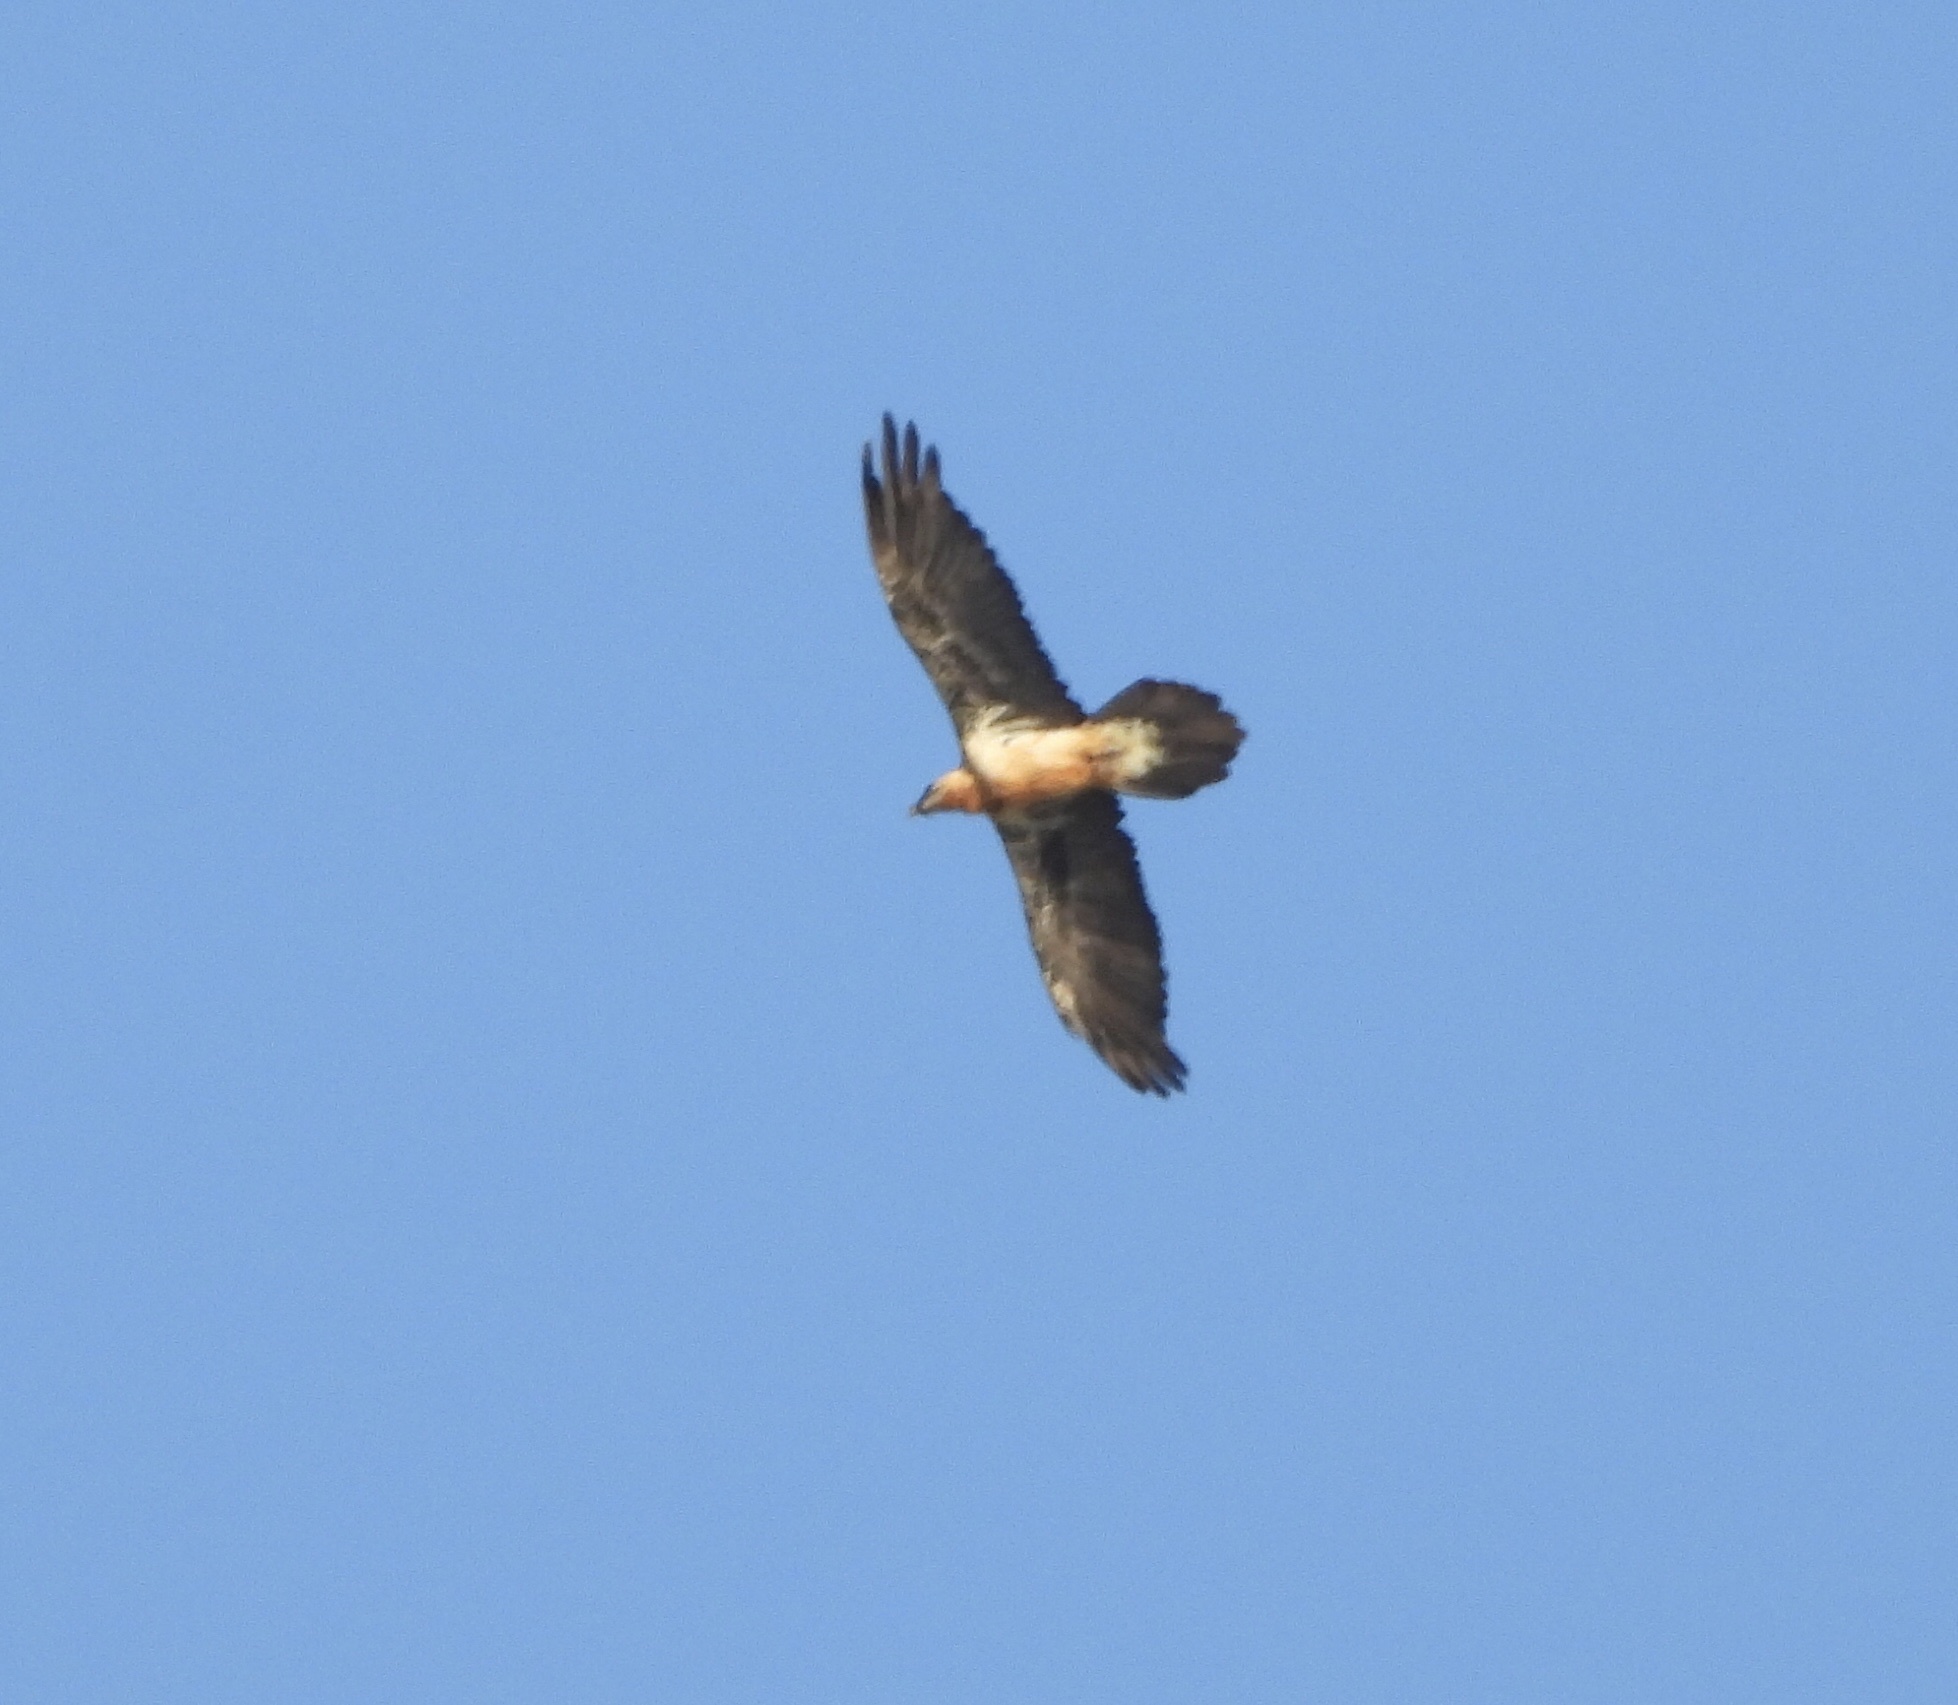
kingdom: Animalia
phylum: Chordata
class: Aves
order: Accipitriformes
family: Accipitridae
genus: Gypaetus
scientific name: Gypaetus barbatus
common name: Bearded vulture
